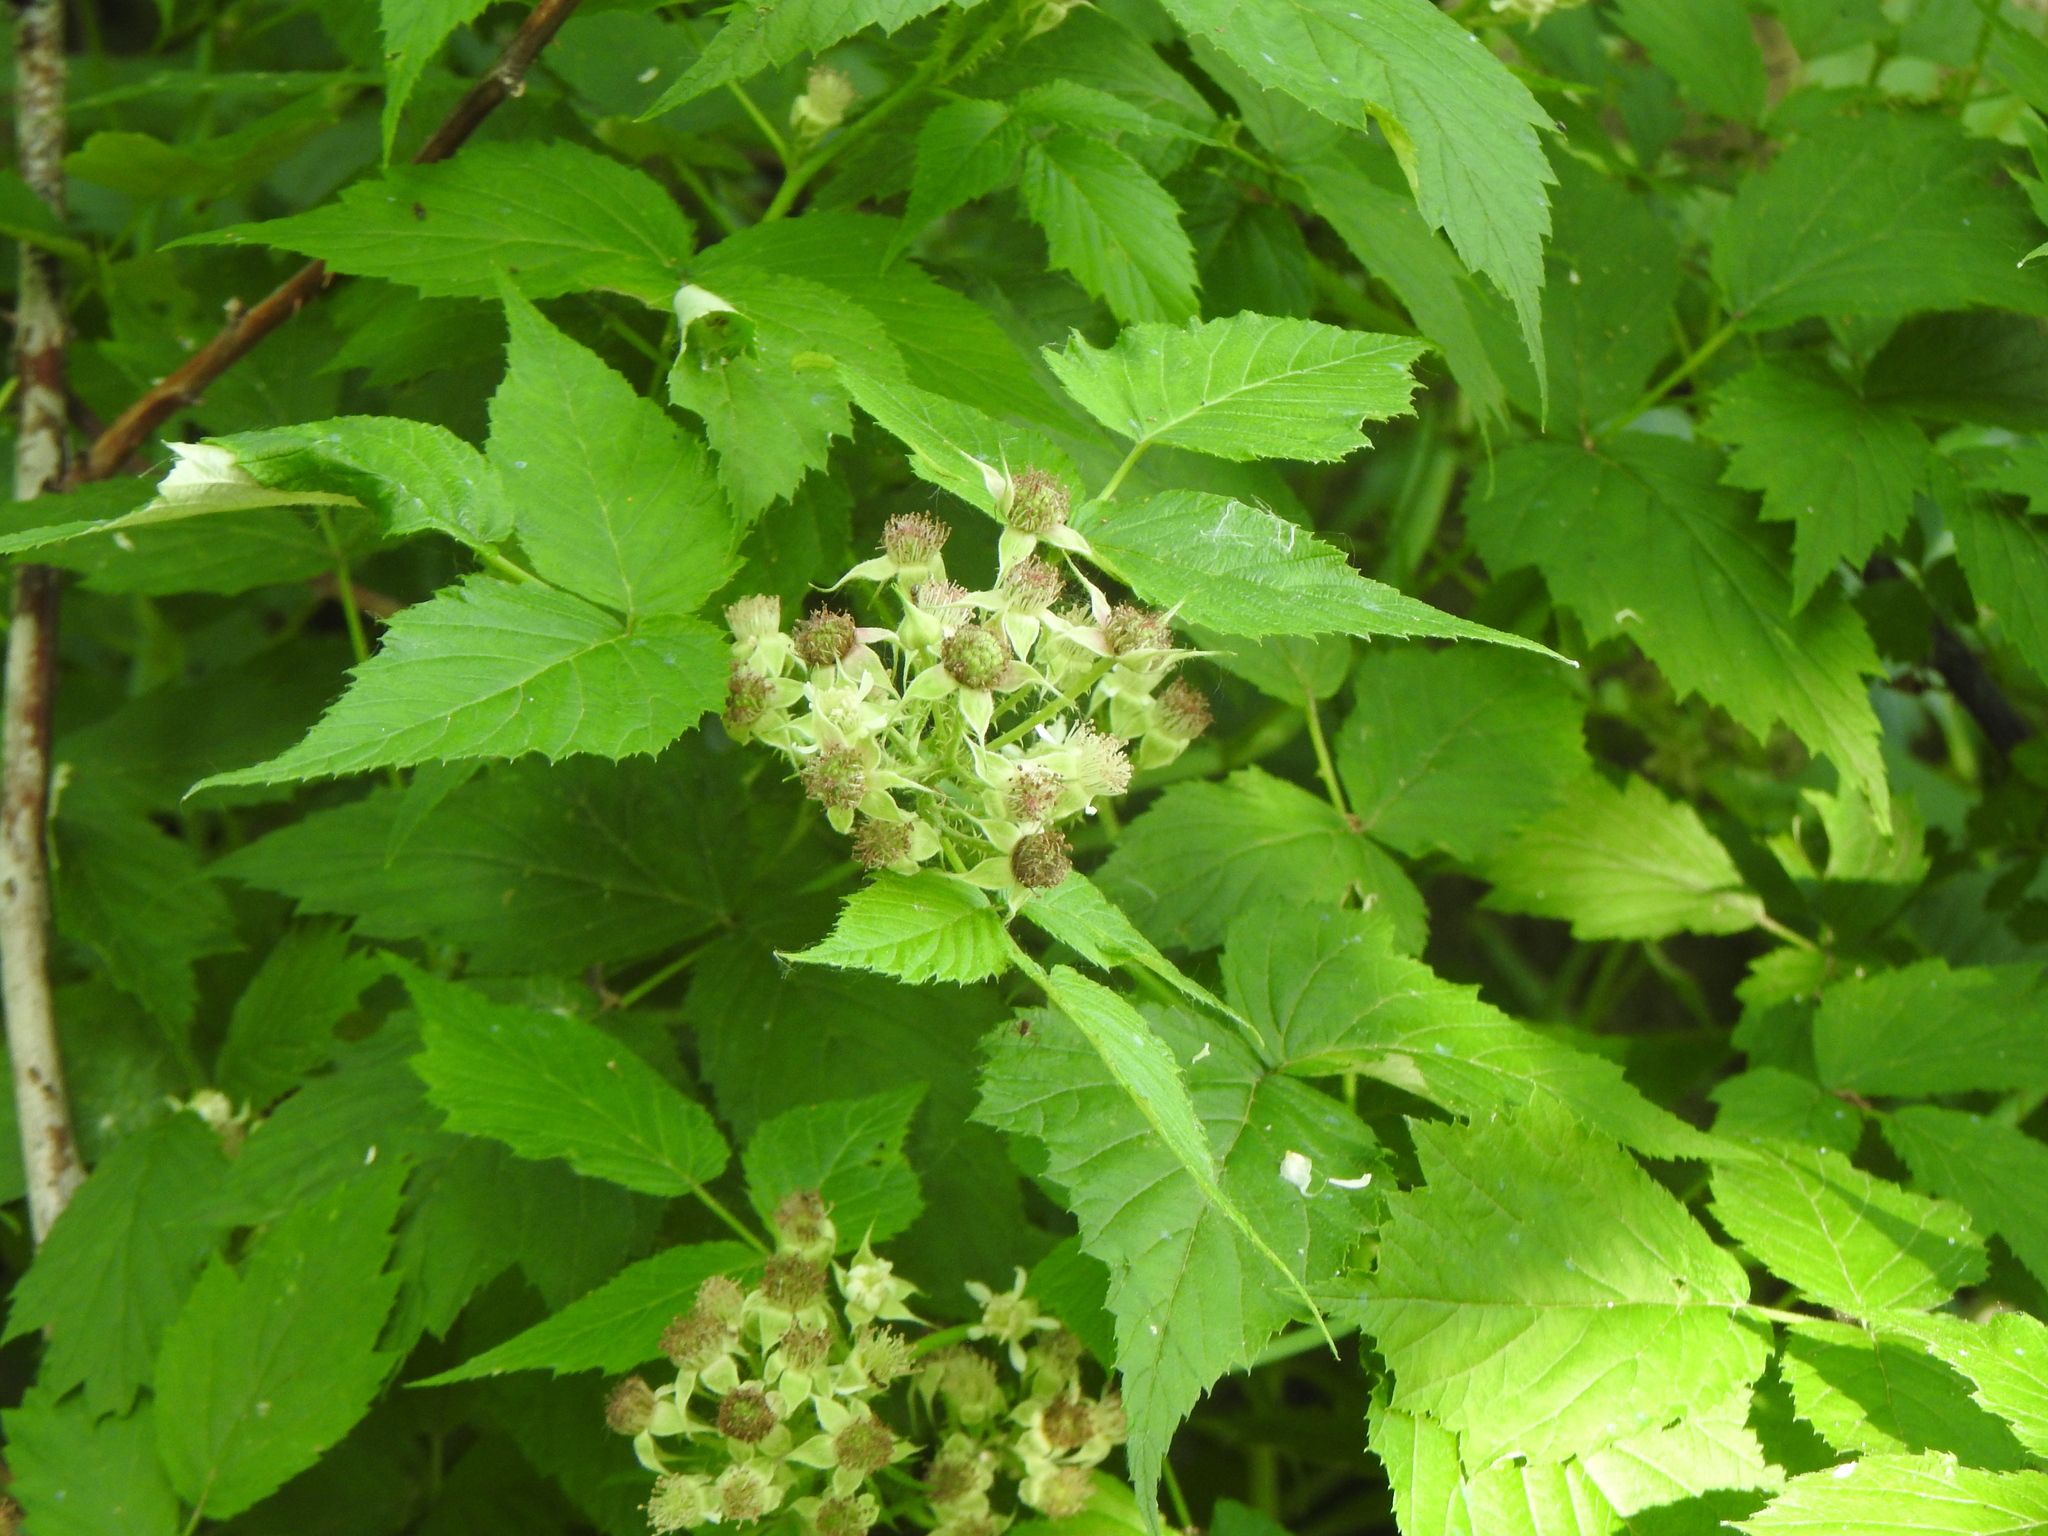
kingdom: Plantae
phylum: Tracheophyta
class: Magnoliopsida
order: Rosales
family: Rosaceae
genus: Rubus
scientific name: Rubus occidentalis
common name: Black raspberry
